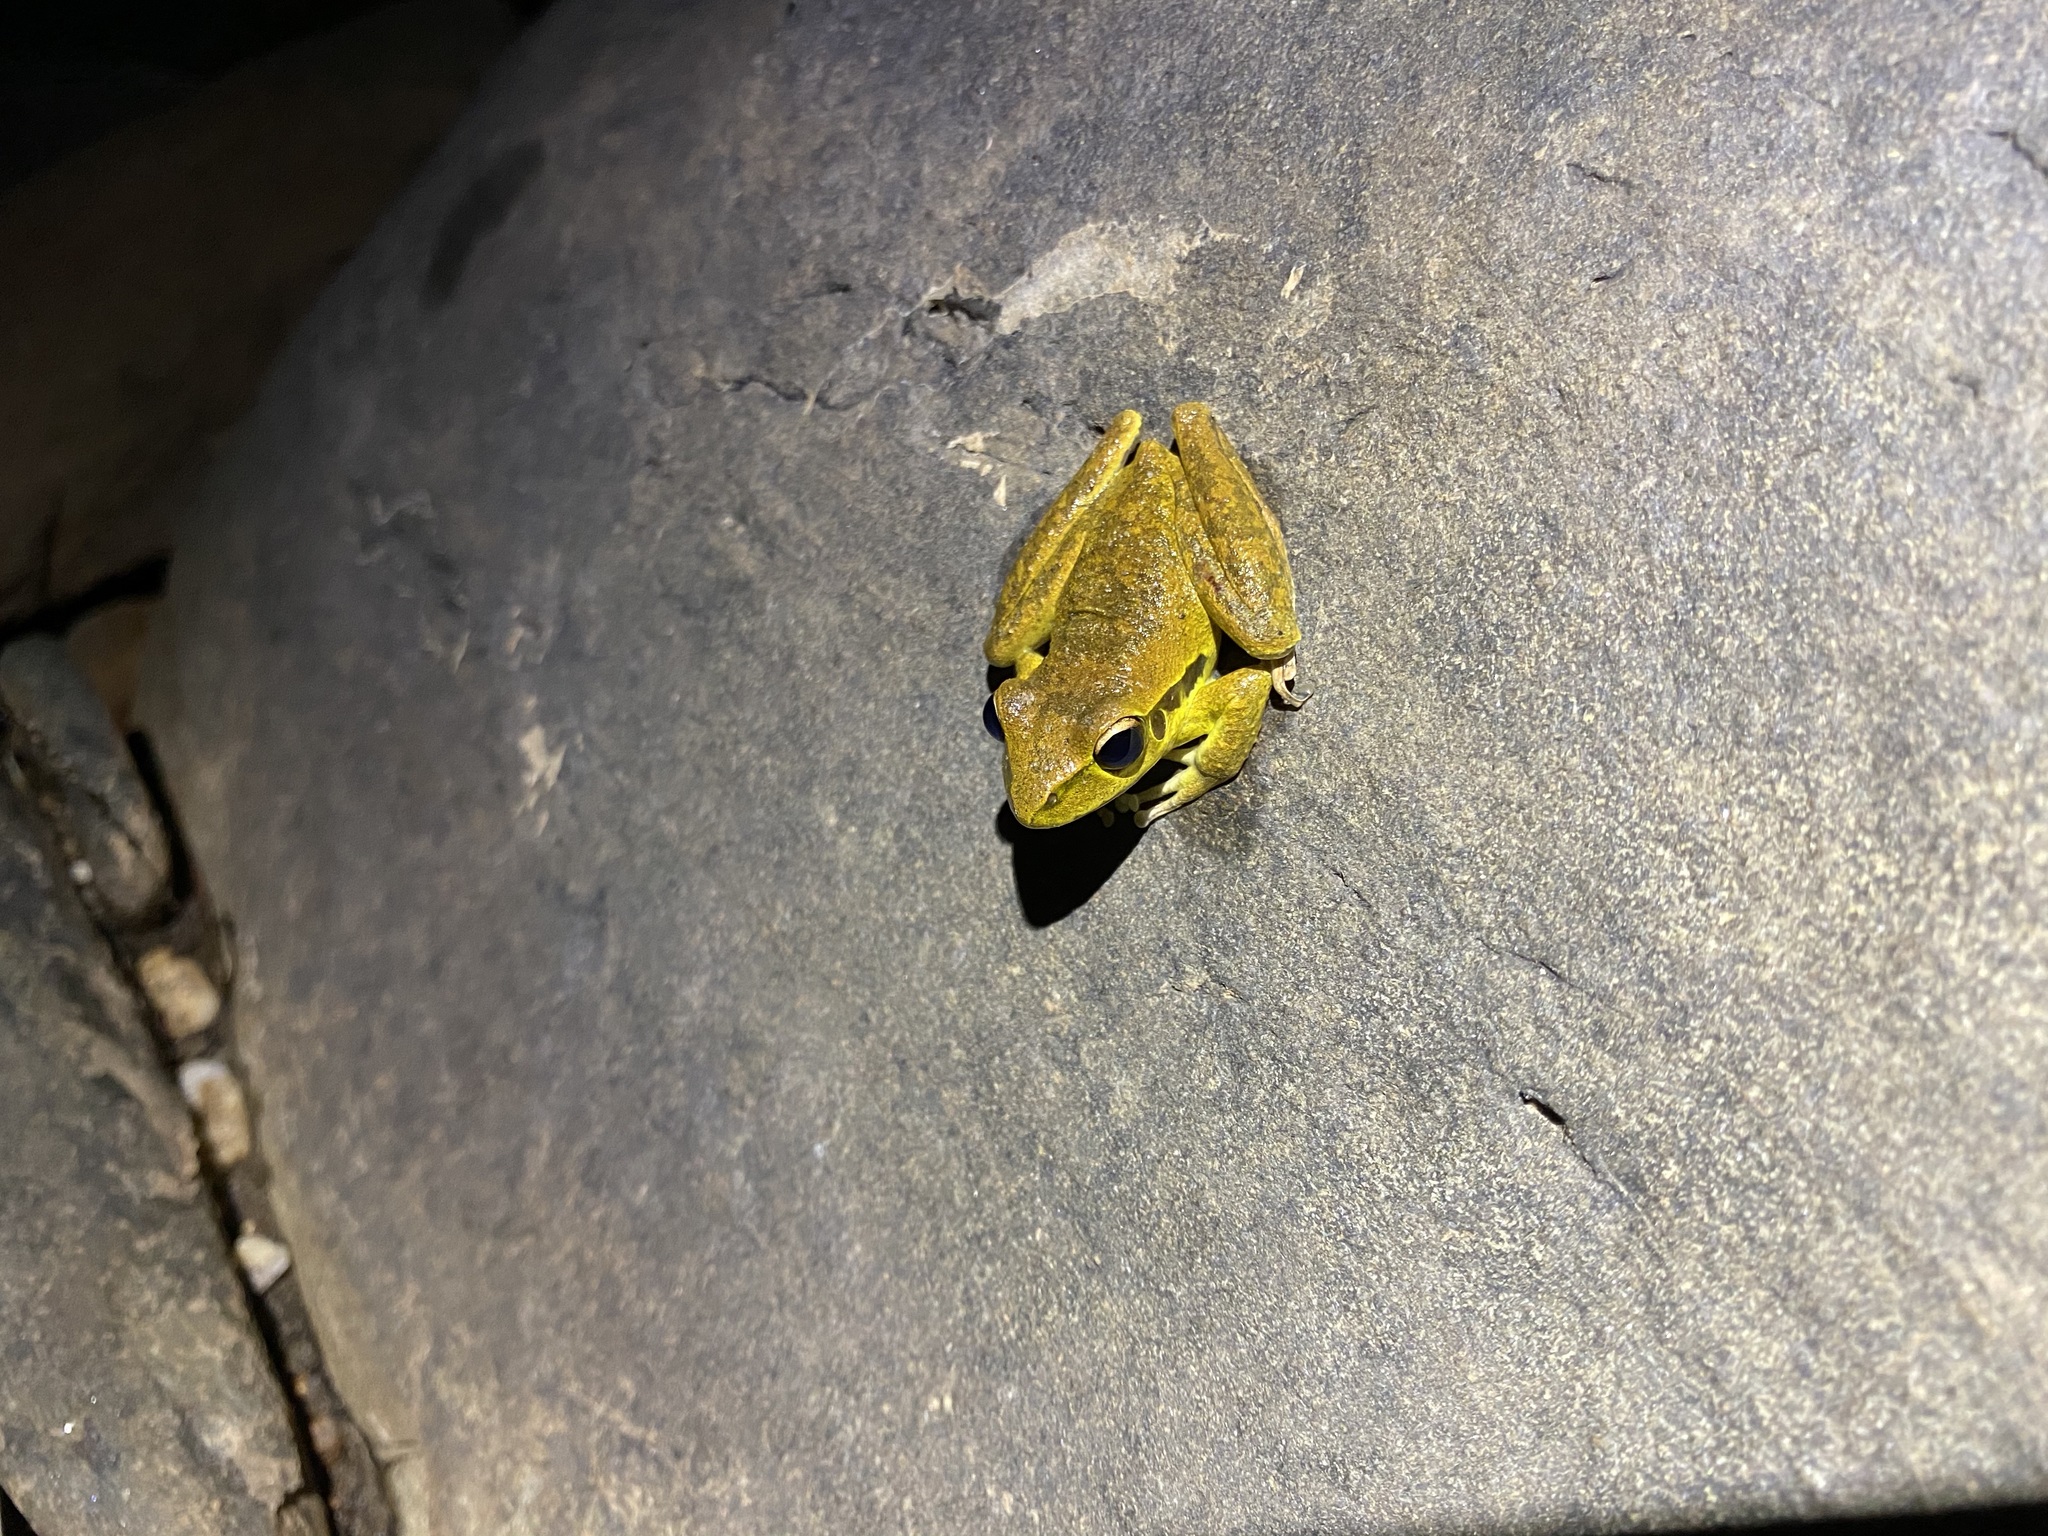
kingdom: Animalia
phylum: Chordata
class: Amphibia
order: Anura
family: Hylidae
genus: Ranoidea
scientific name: Ranoidea
